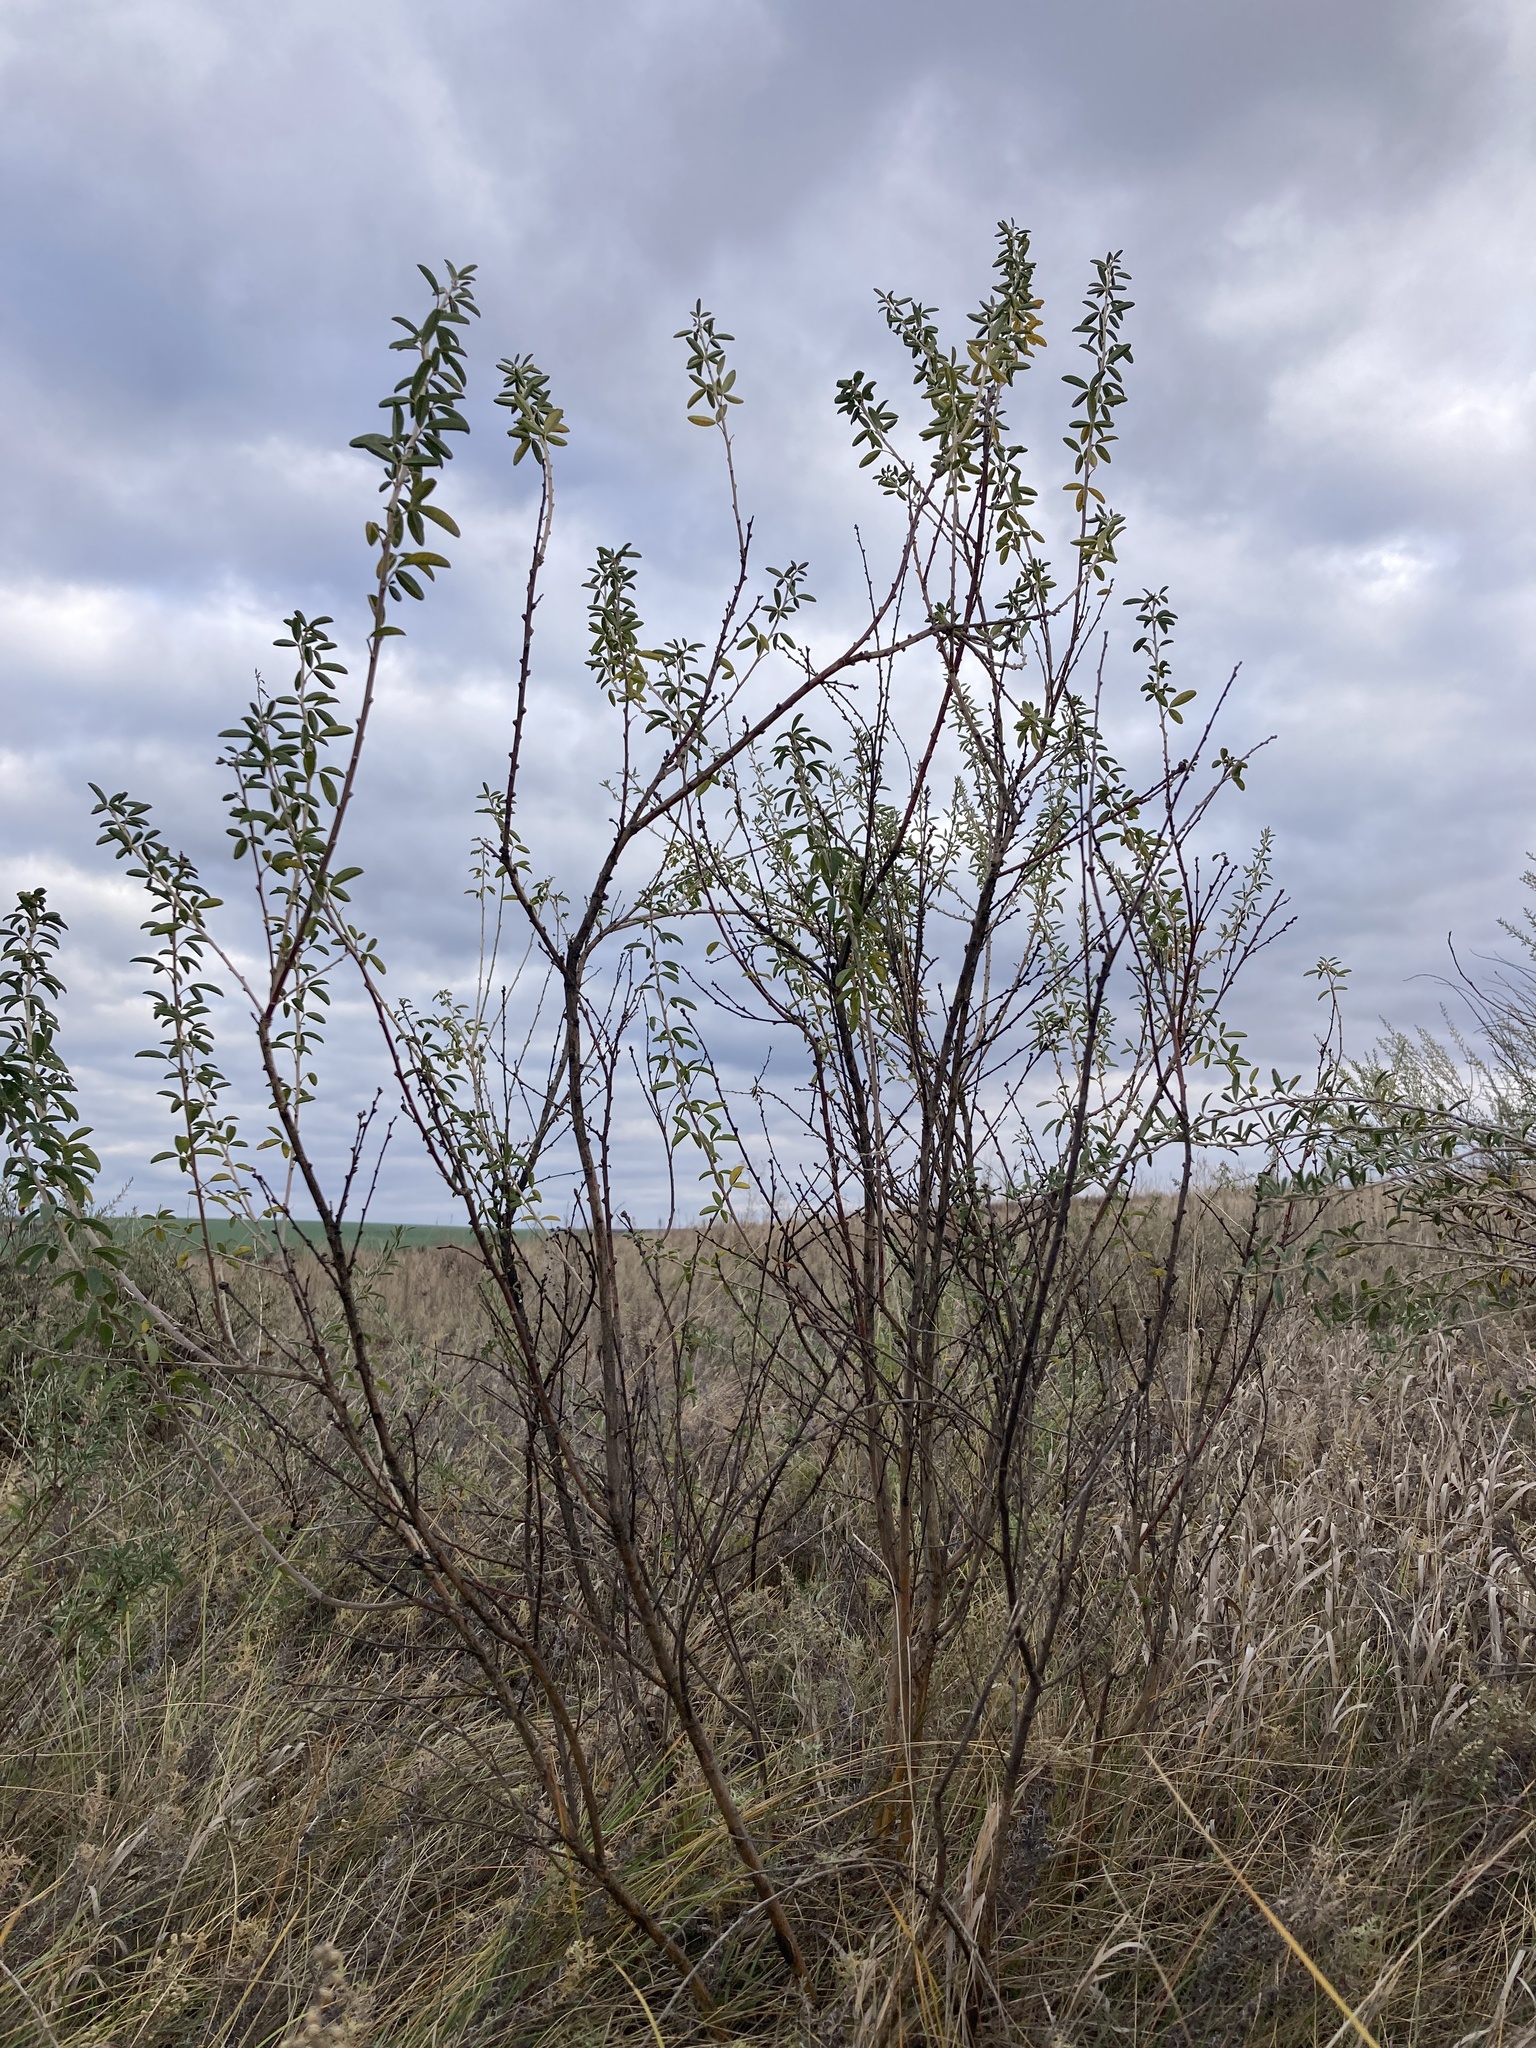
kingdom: Plantae
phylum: Tracheophyta
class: Magnoliopsida
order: Fabales
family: Fabaceae
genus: Chamaecytisus
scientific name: Chamaecytisus ruthenicus
